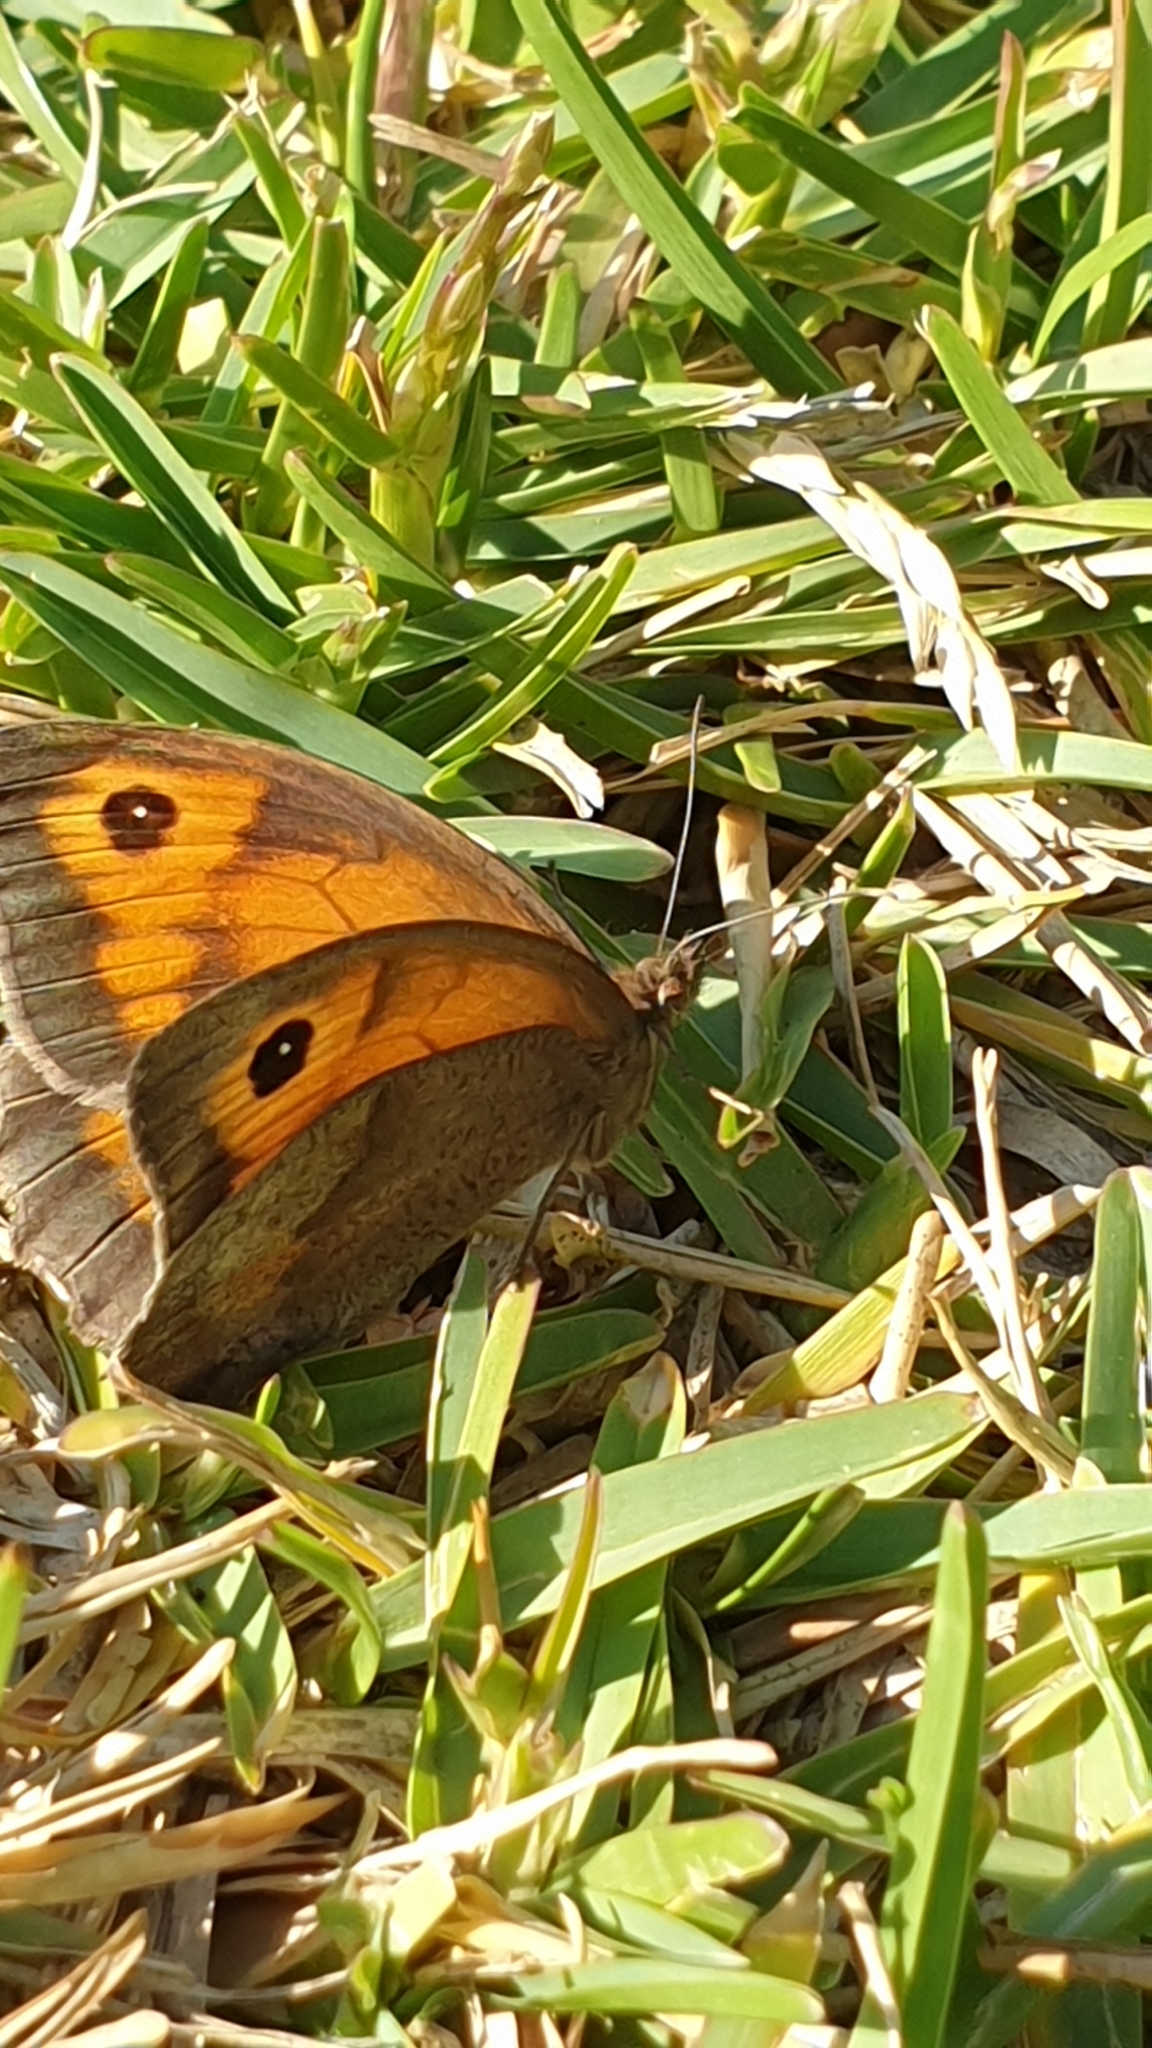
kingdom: Animalia
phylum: Arthropoda
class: Insecta
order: Lepidoptera
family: Nymphalidae
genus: Maniola
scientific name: Maniola jurtina
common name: Meadow brown
